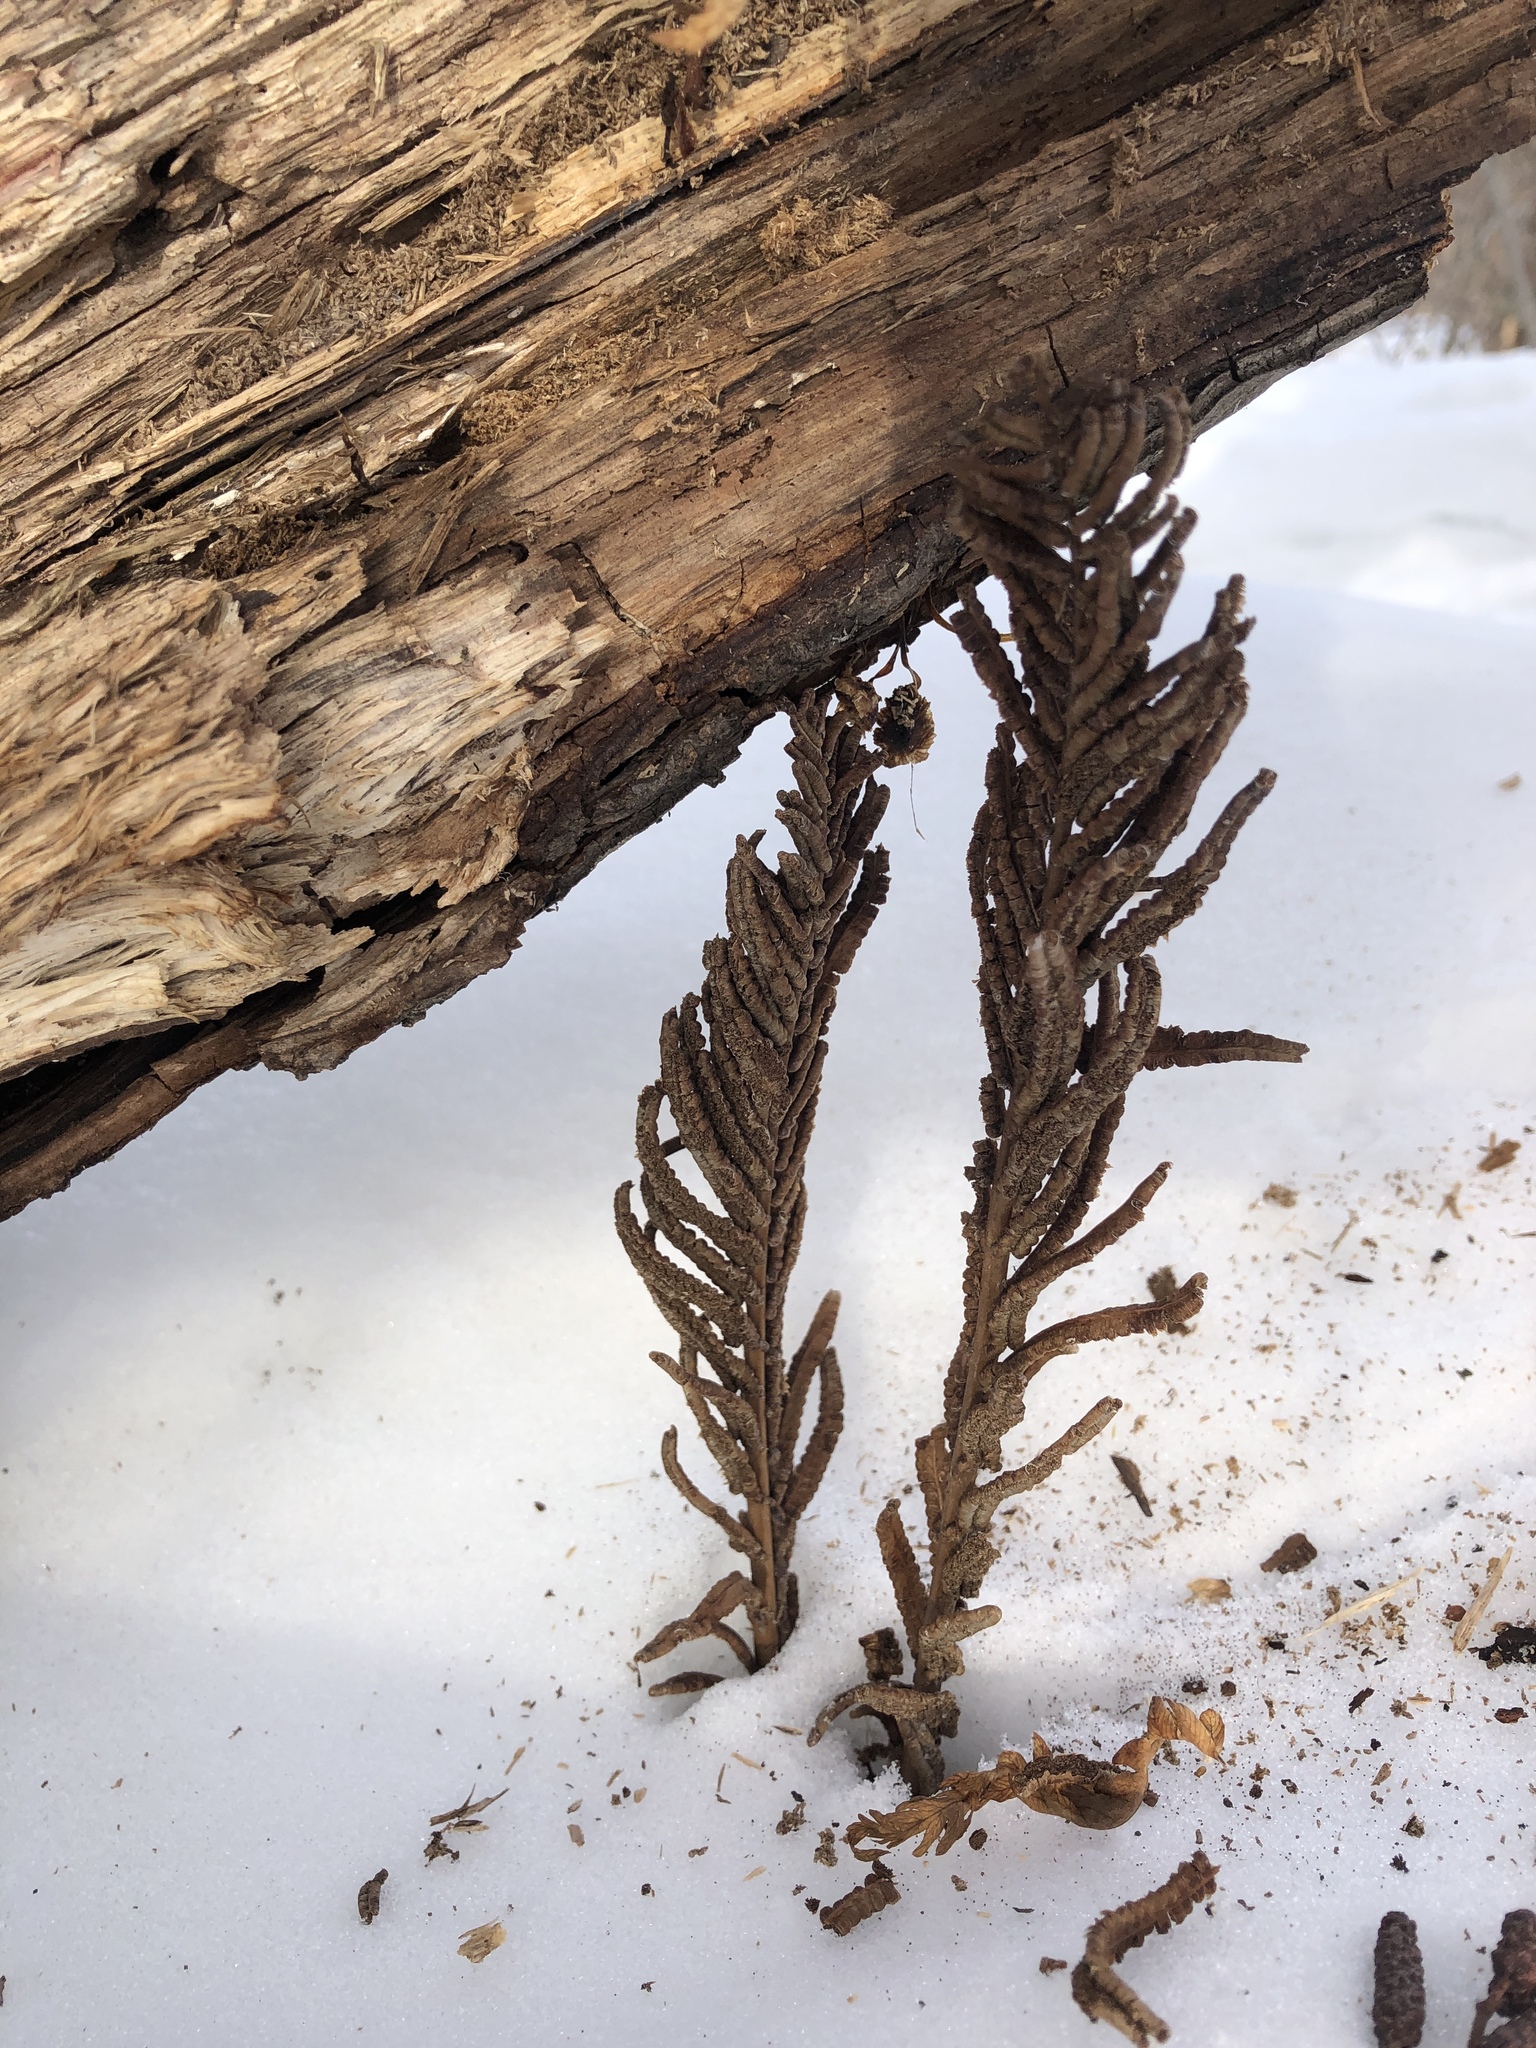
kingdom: Plantae
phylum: Tracheophyta
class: Polypodiopsida
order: Polypodiales
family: Onocleaceae
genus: Matteuccia
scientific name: Matteuccia struthiopteris
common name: Ostrich fern
